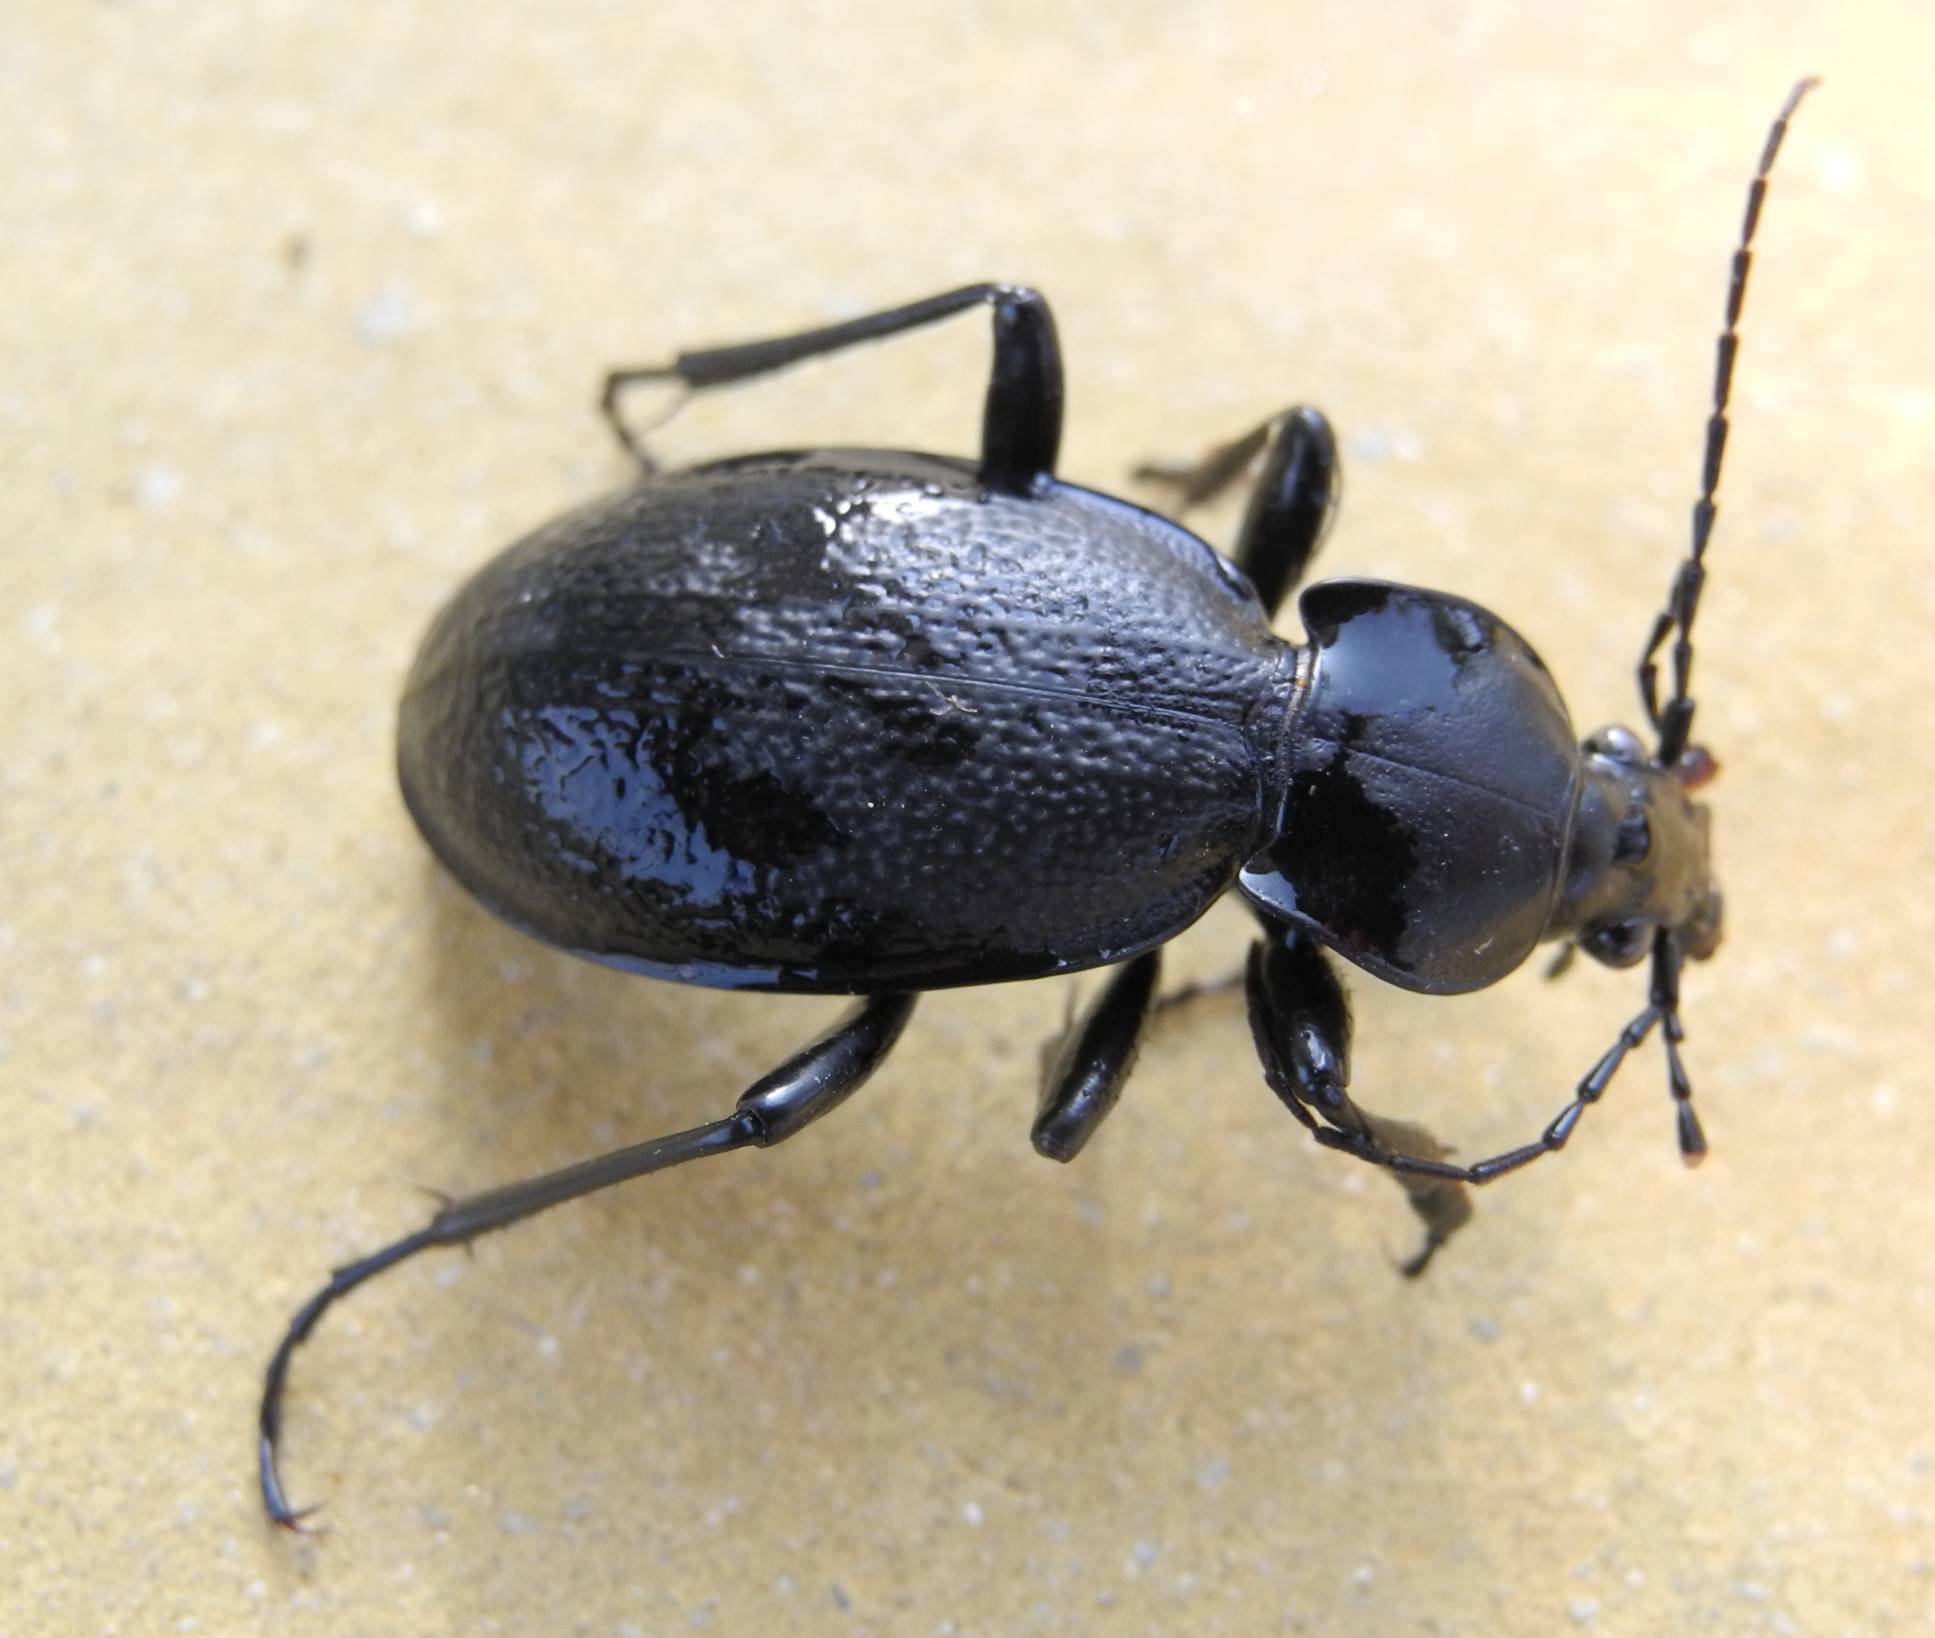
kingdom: Animalia
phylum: Arthropoda
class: Insecta
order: Coleoptera
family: Carabidae
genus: Carabus
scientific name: Carabus coriaceus
